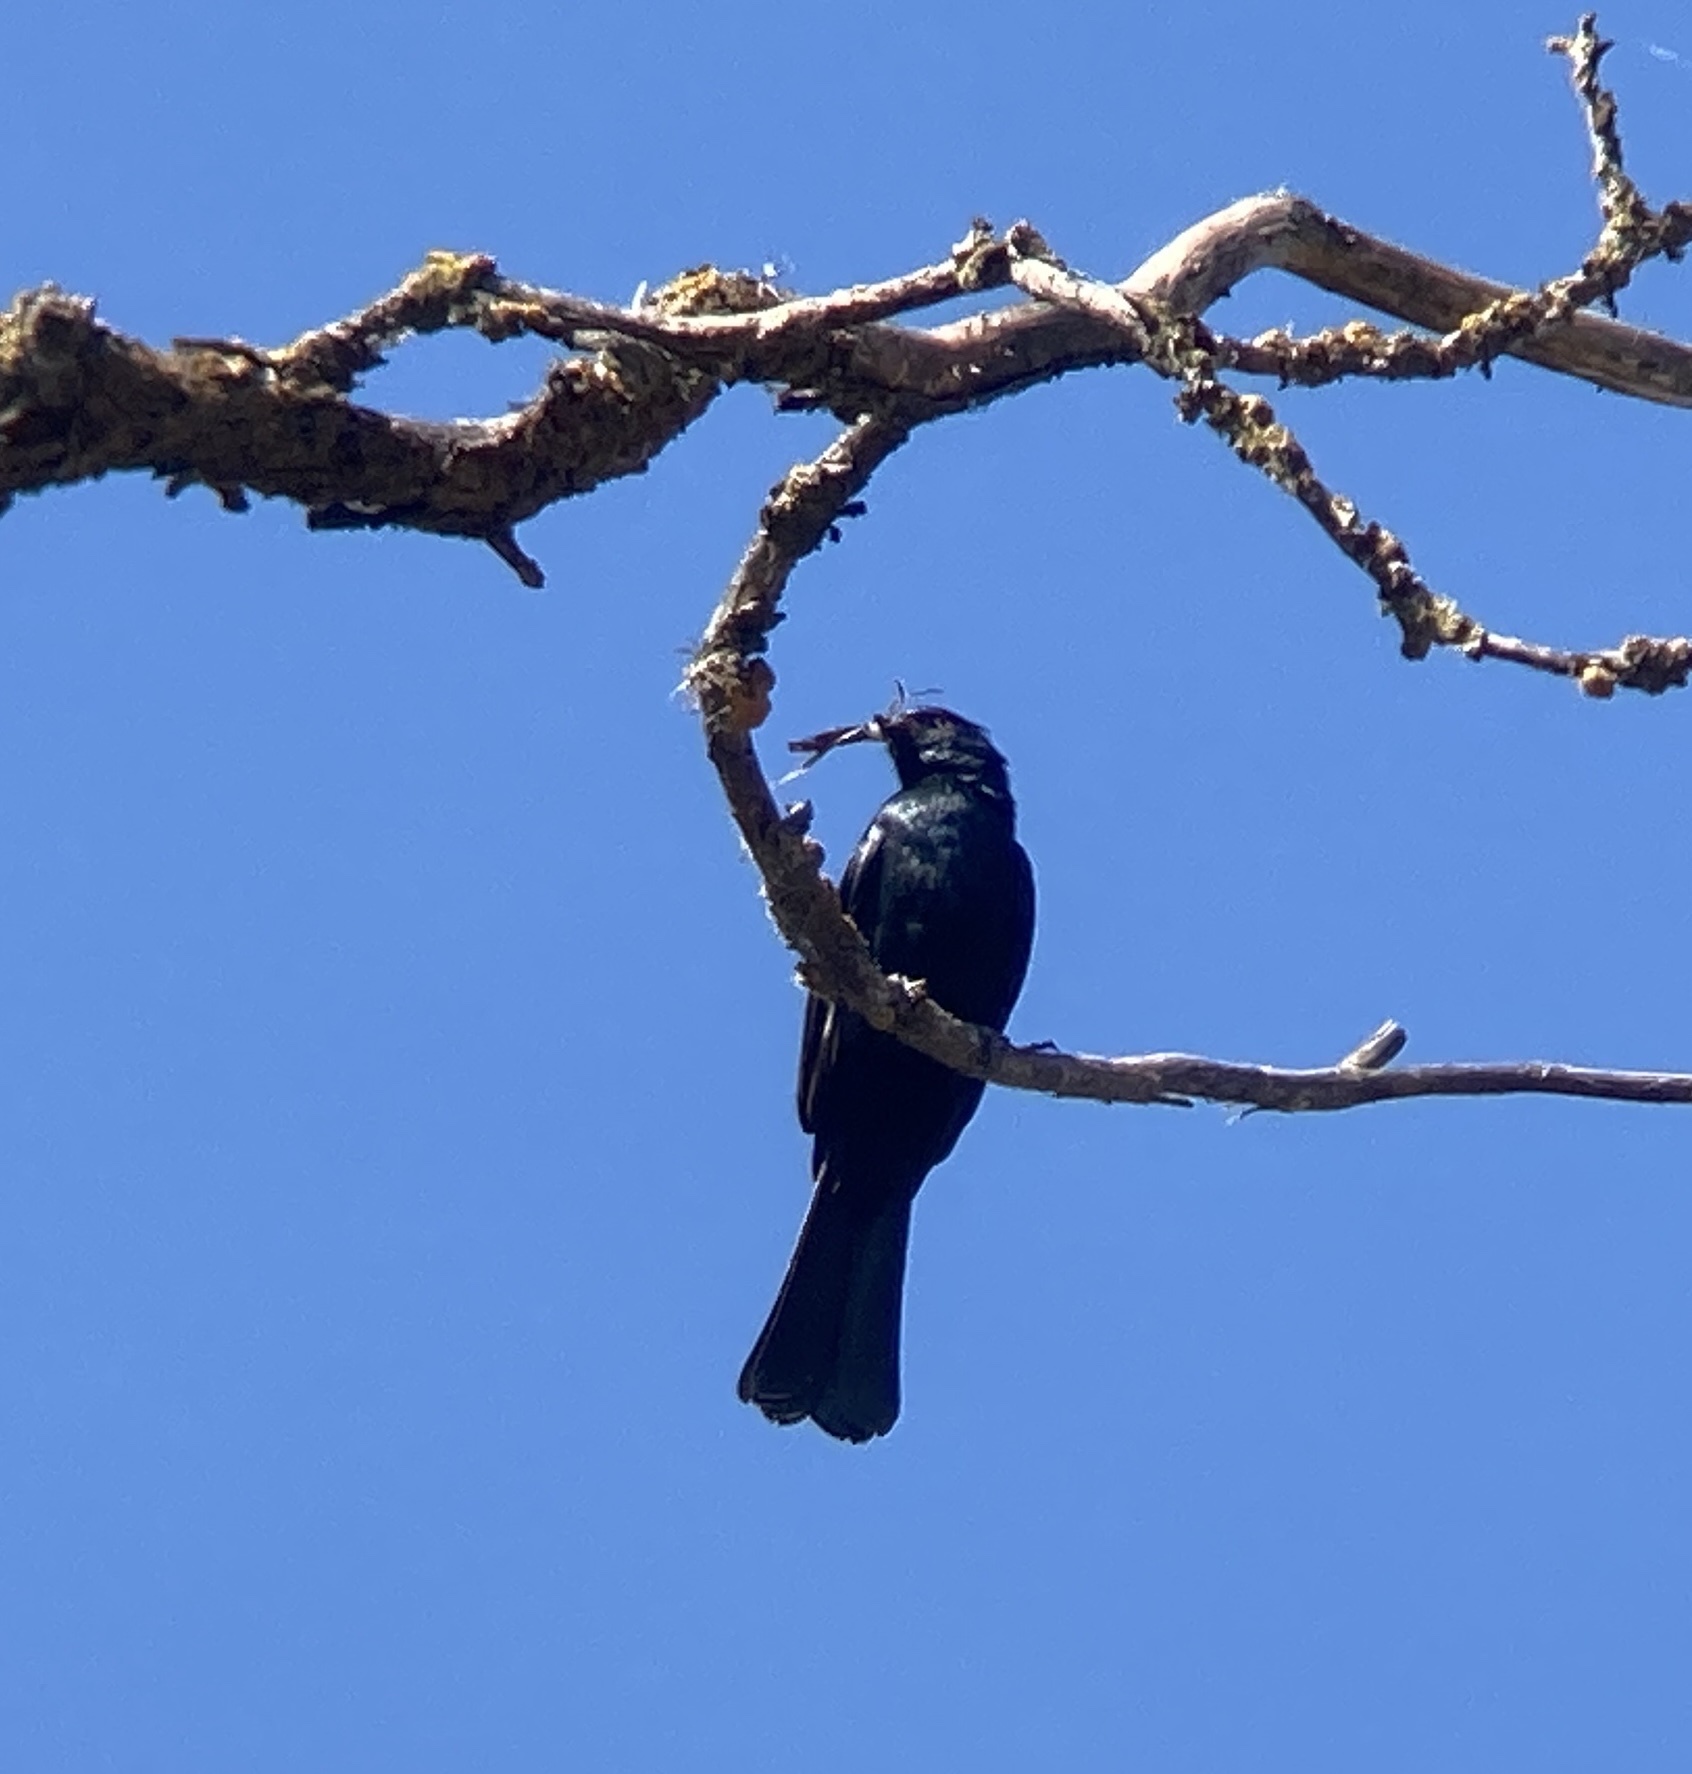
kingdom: Animalia
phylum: Chordata
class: Aves
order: Passeriformes
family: Ptilogonatidae
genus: Phainopepla
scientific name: Phainopepla nitens
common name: Phainopepla
